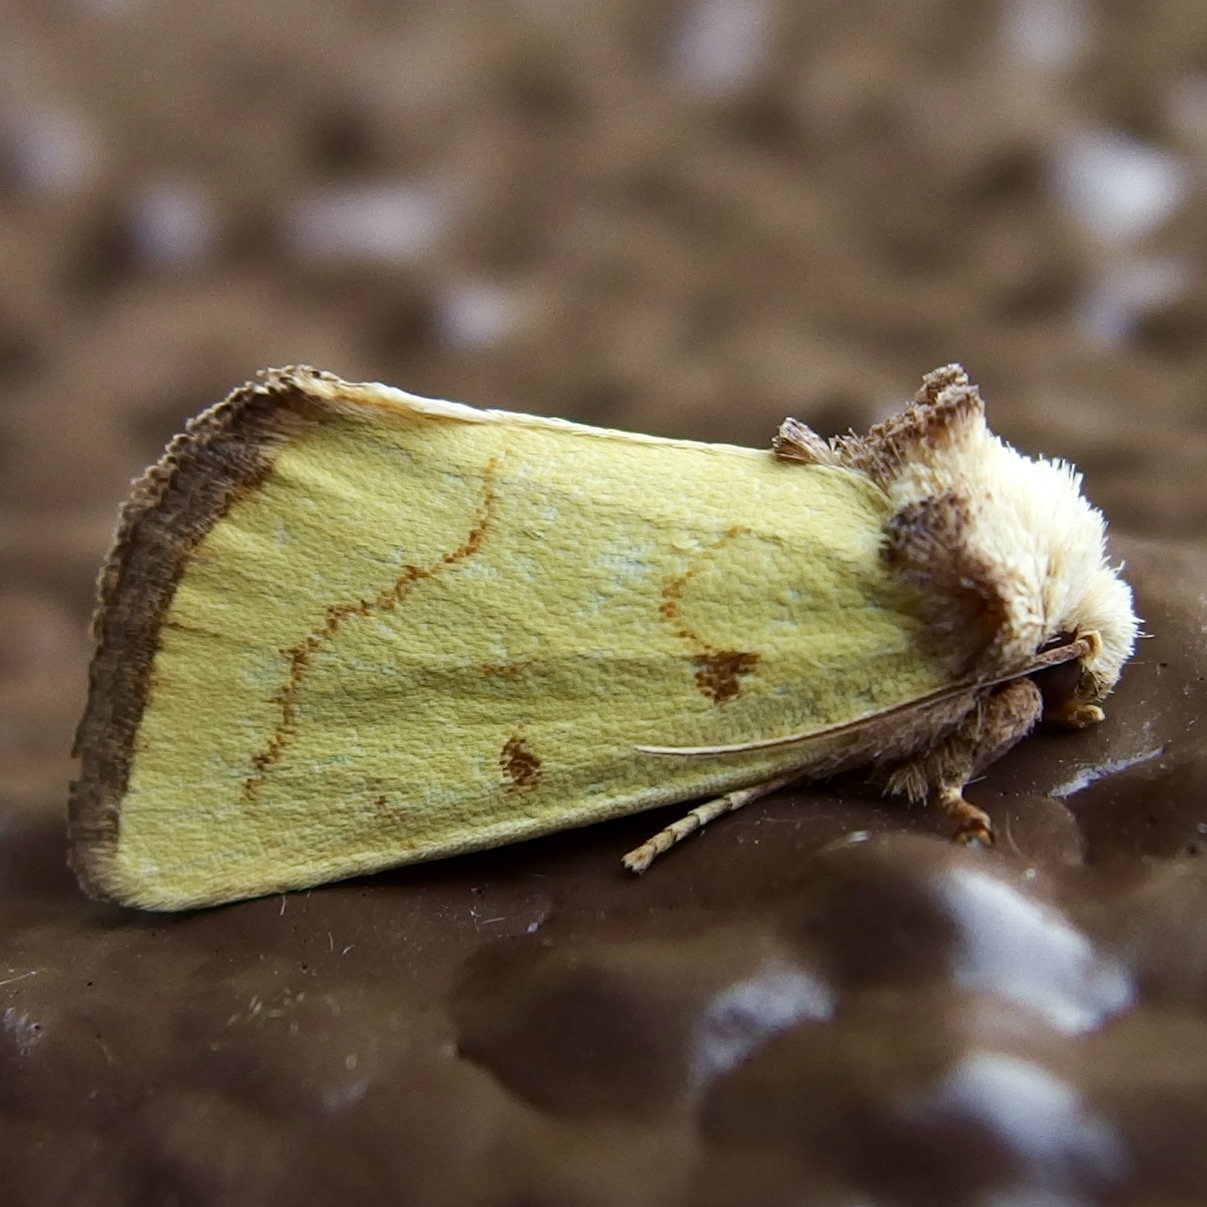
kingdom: Animalia
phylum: Arthropoda
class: Insecta
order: Lepidoptera
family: Noctuidae
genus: Nocloa
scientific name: Nocloa aliaga
